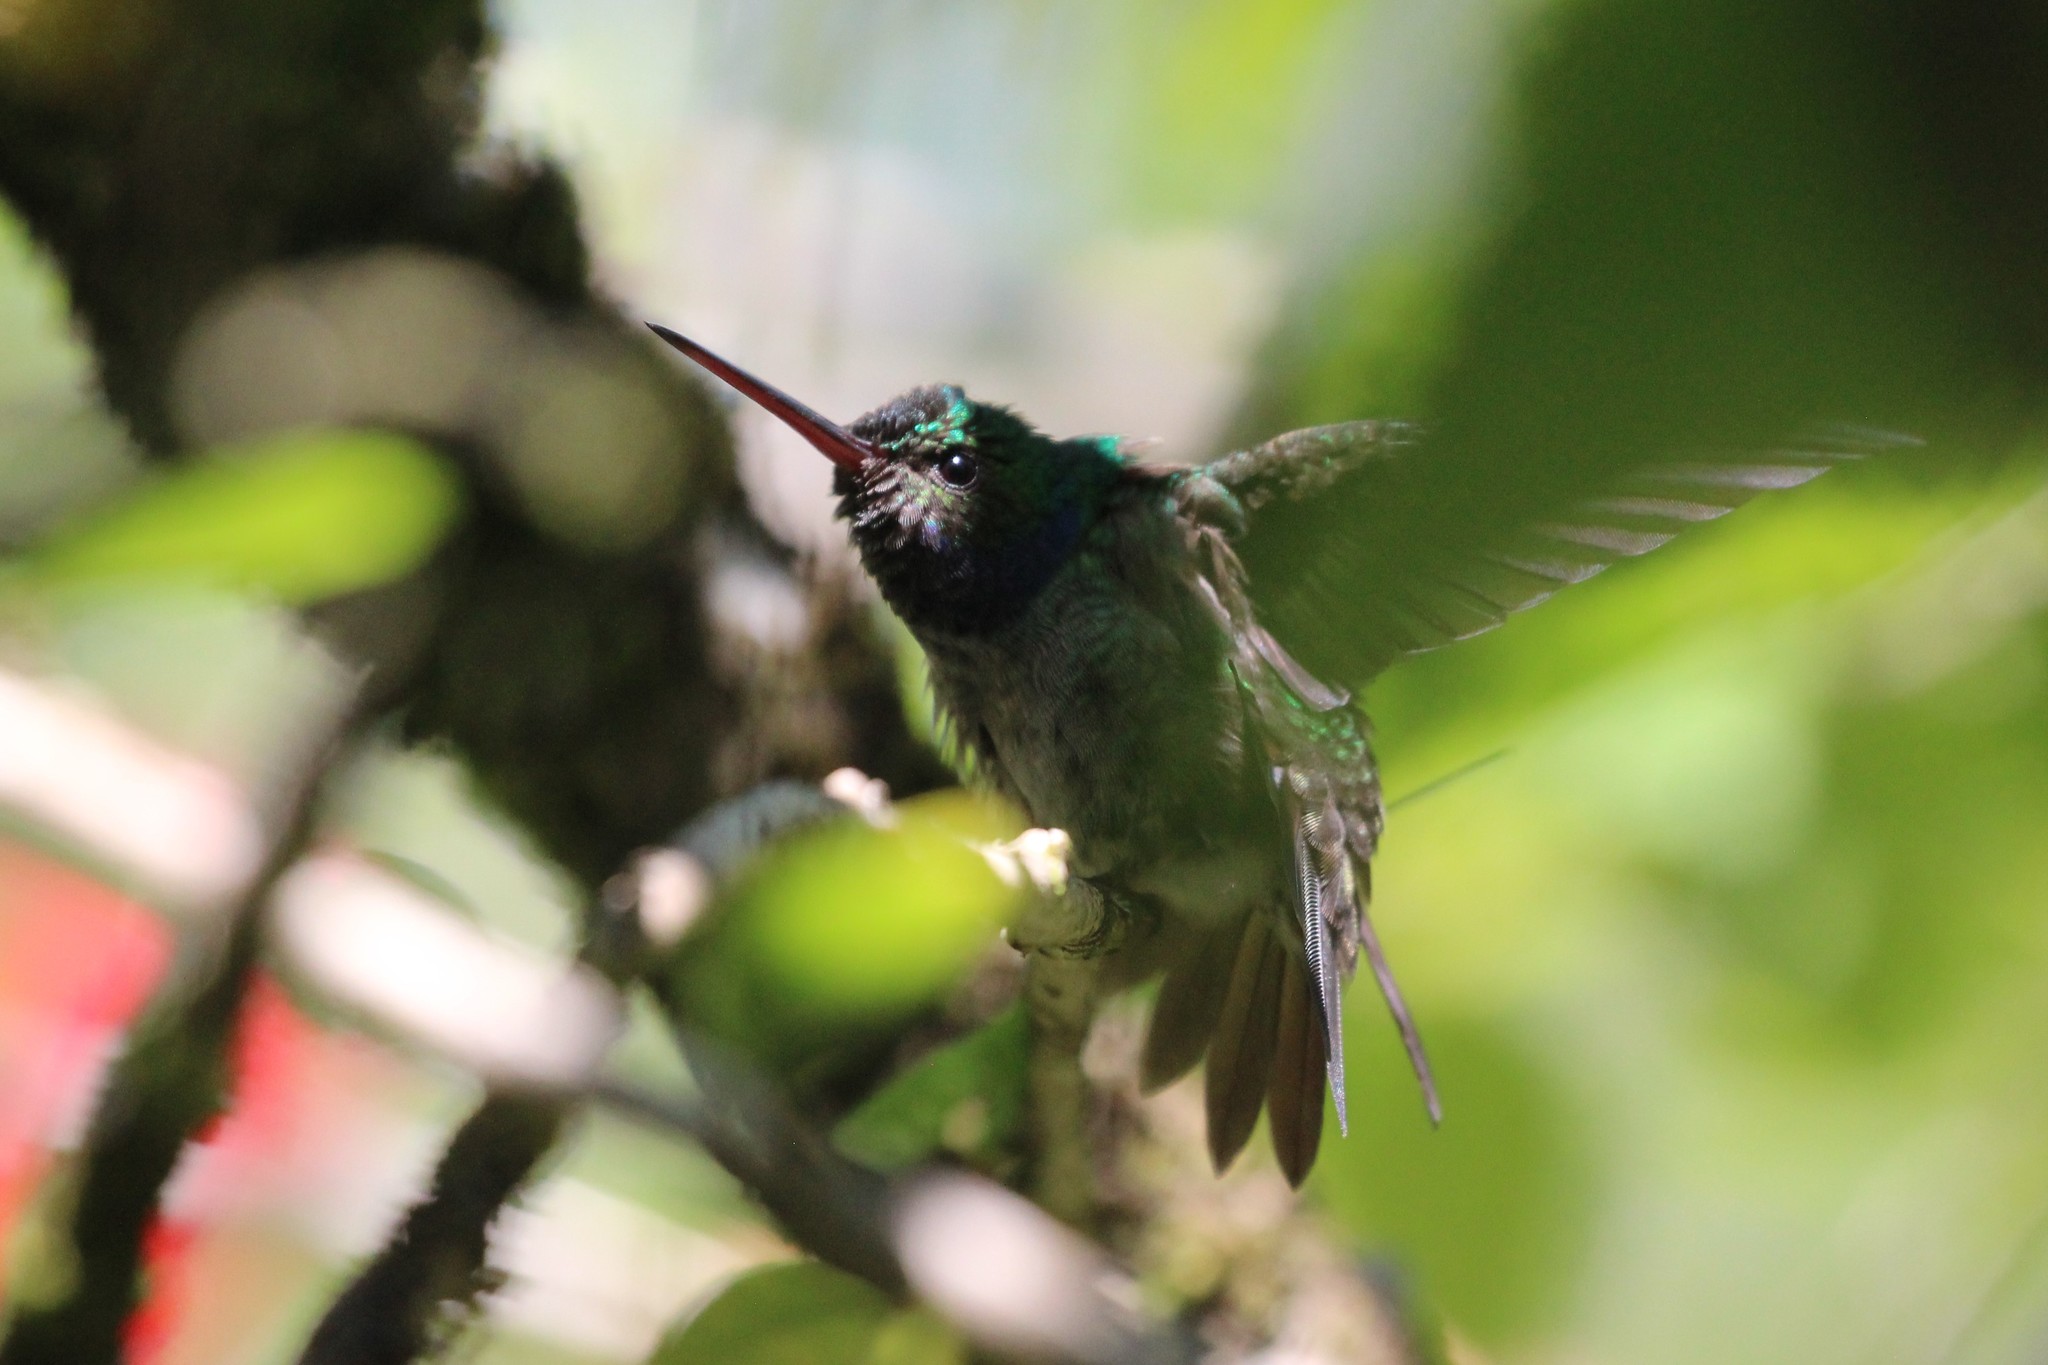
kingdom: Animalia
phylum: Chordata
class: Aves
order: Apodiformes
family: Trochilidae
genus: Polyerata
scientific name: Polyerata decora
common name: Charming hummingbird
